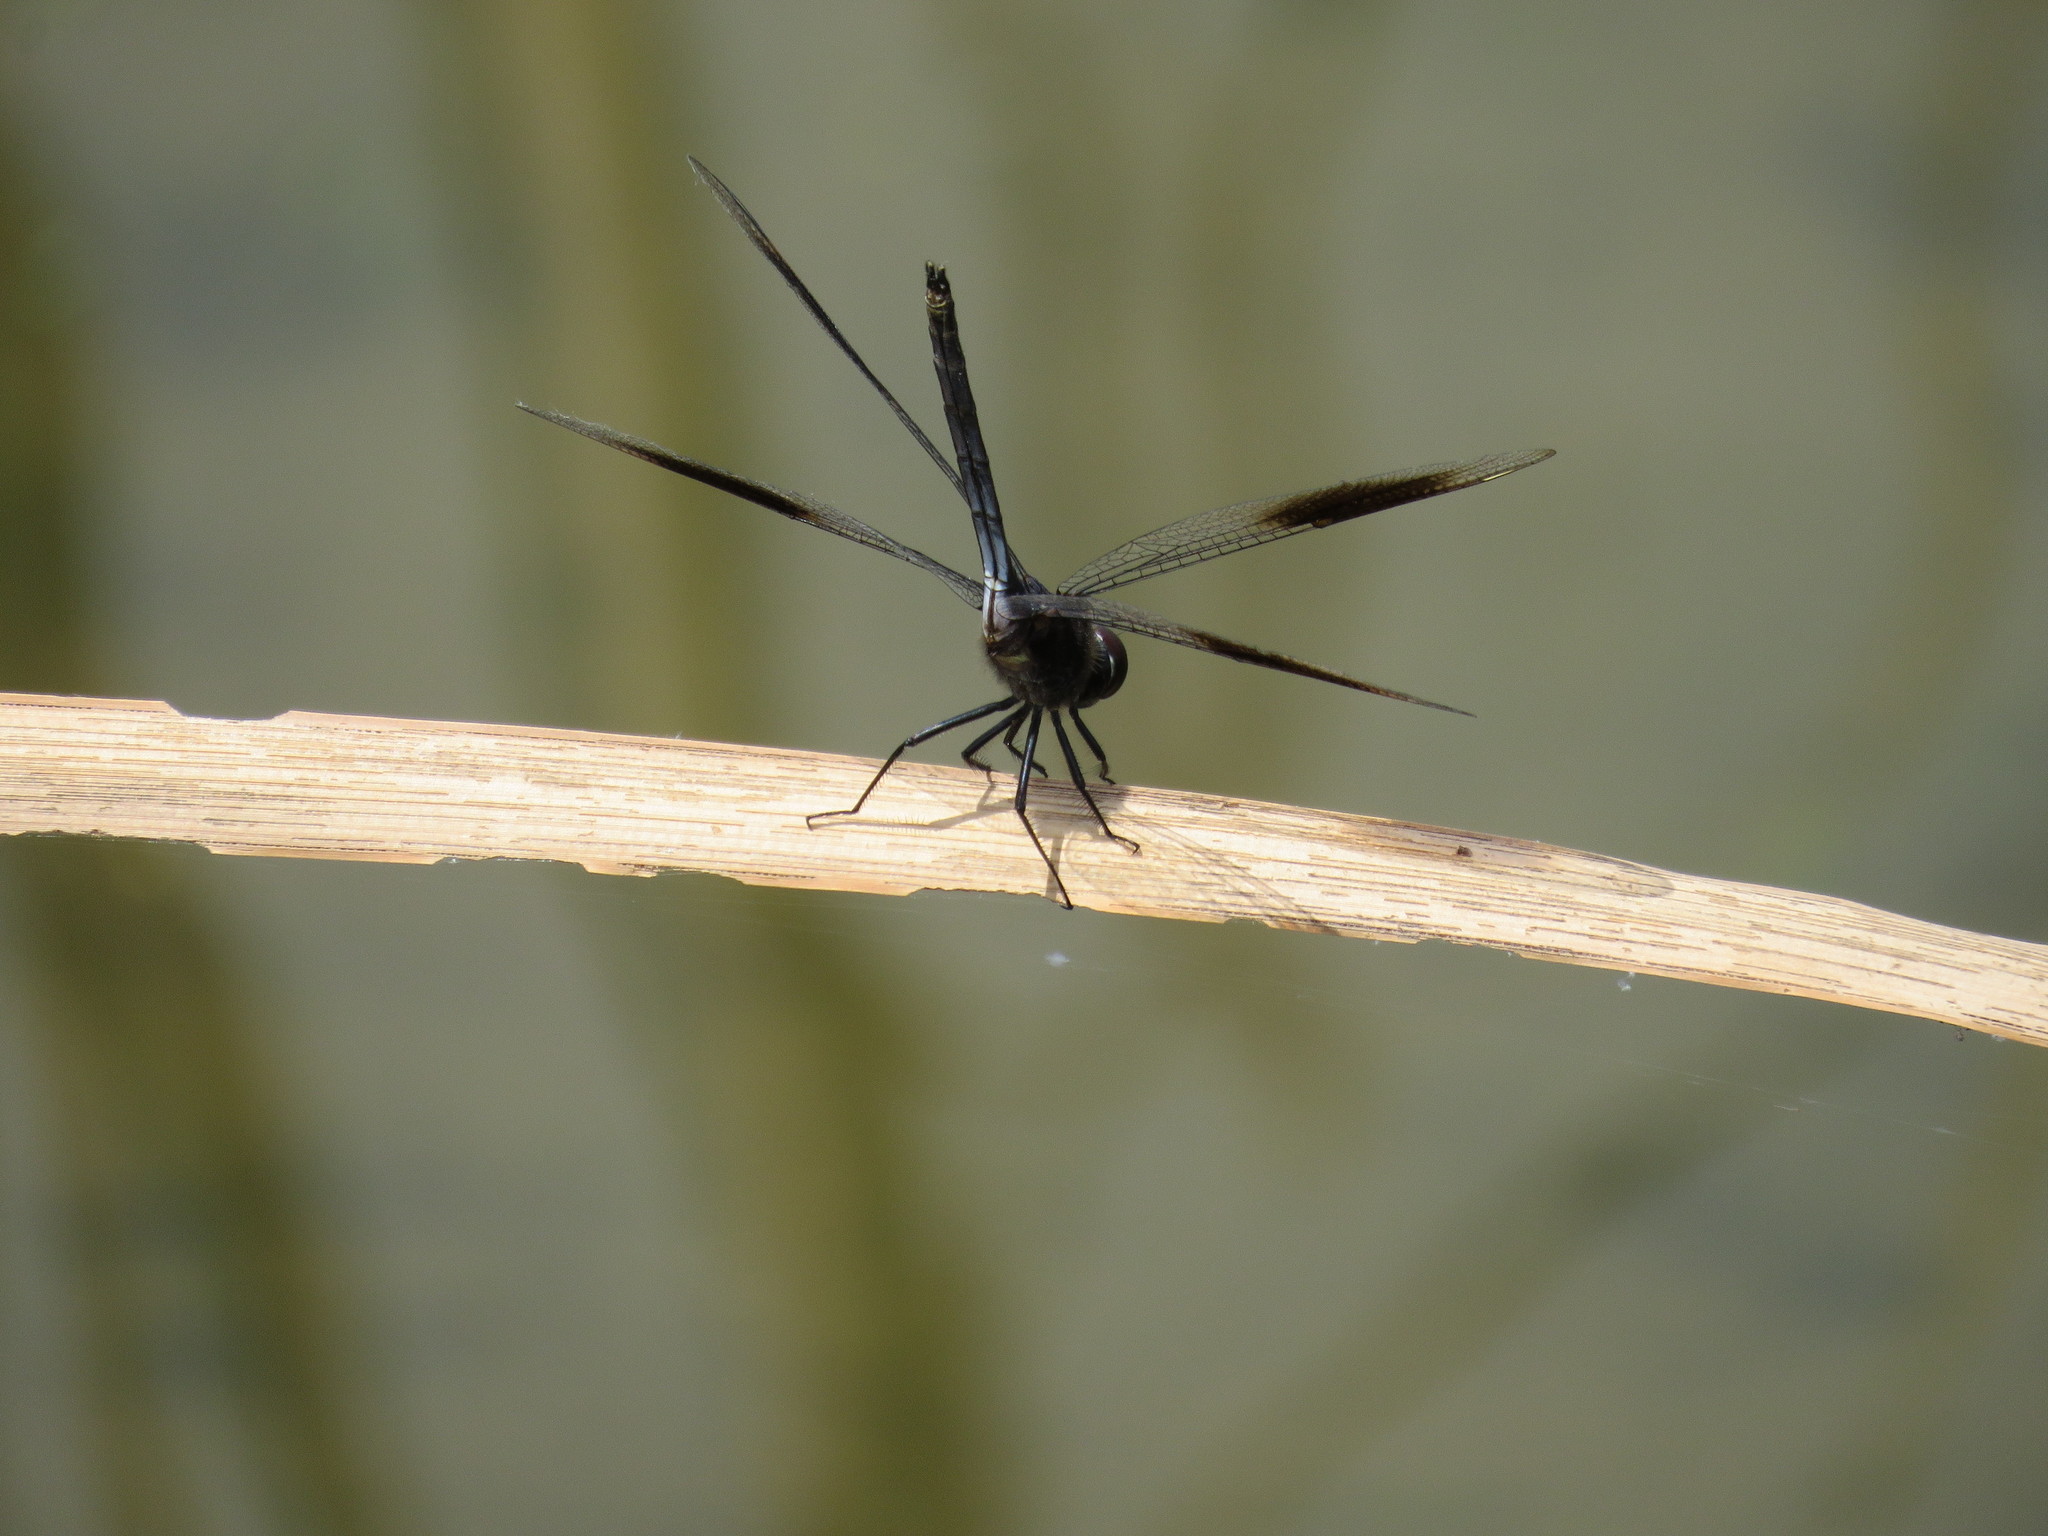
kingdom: Animalia
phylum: Arthropoda
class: Insecta
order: Odonata
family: Libellulidae
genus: Brachymesia
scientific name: Brachymesia gravida
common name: Four-spotted pennant
